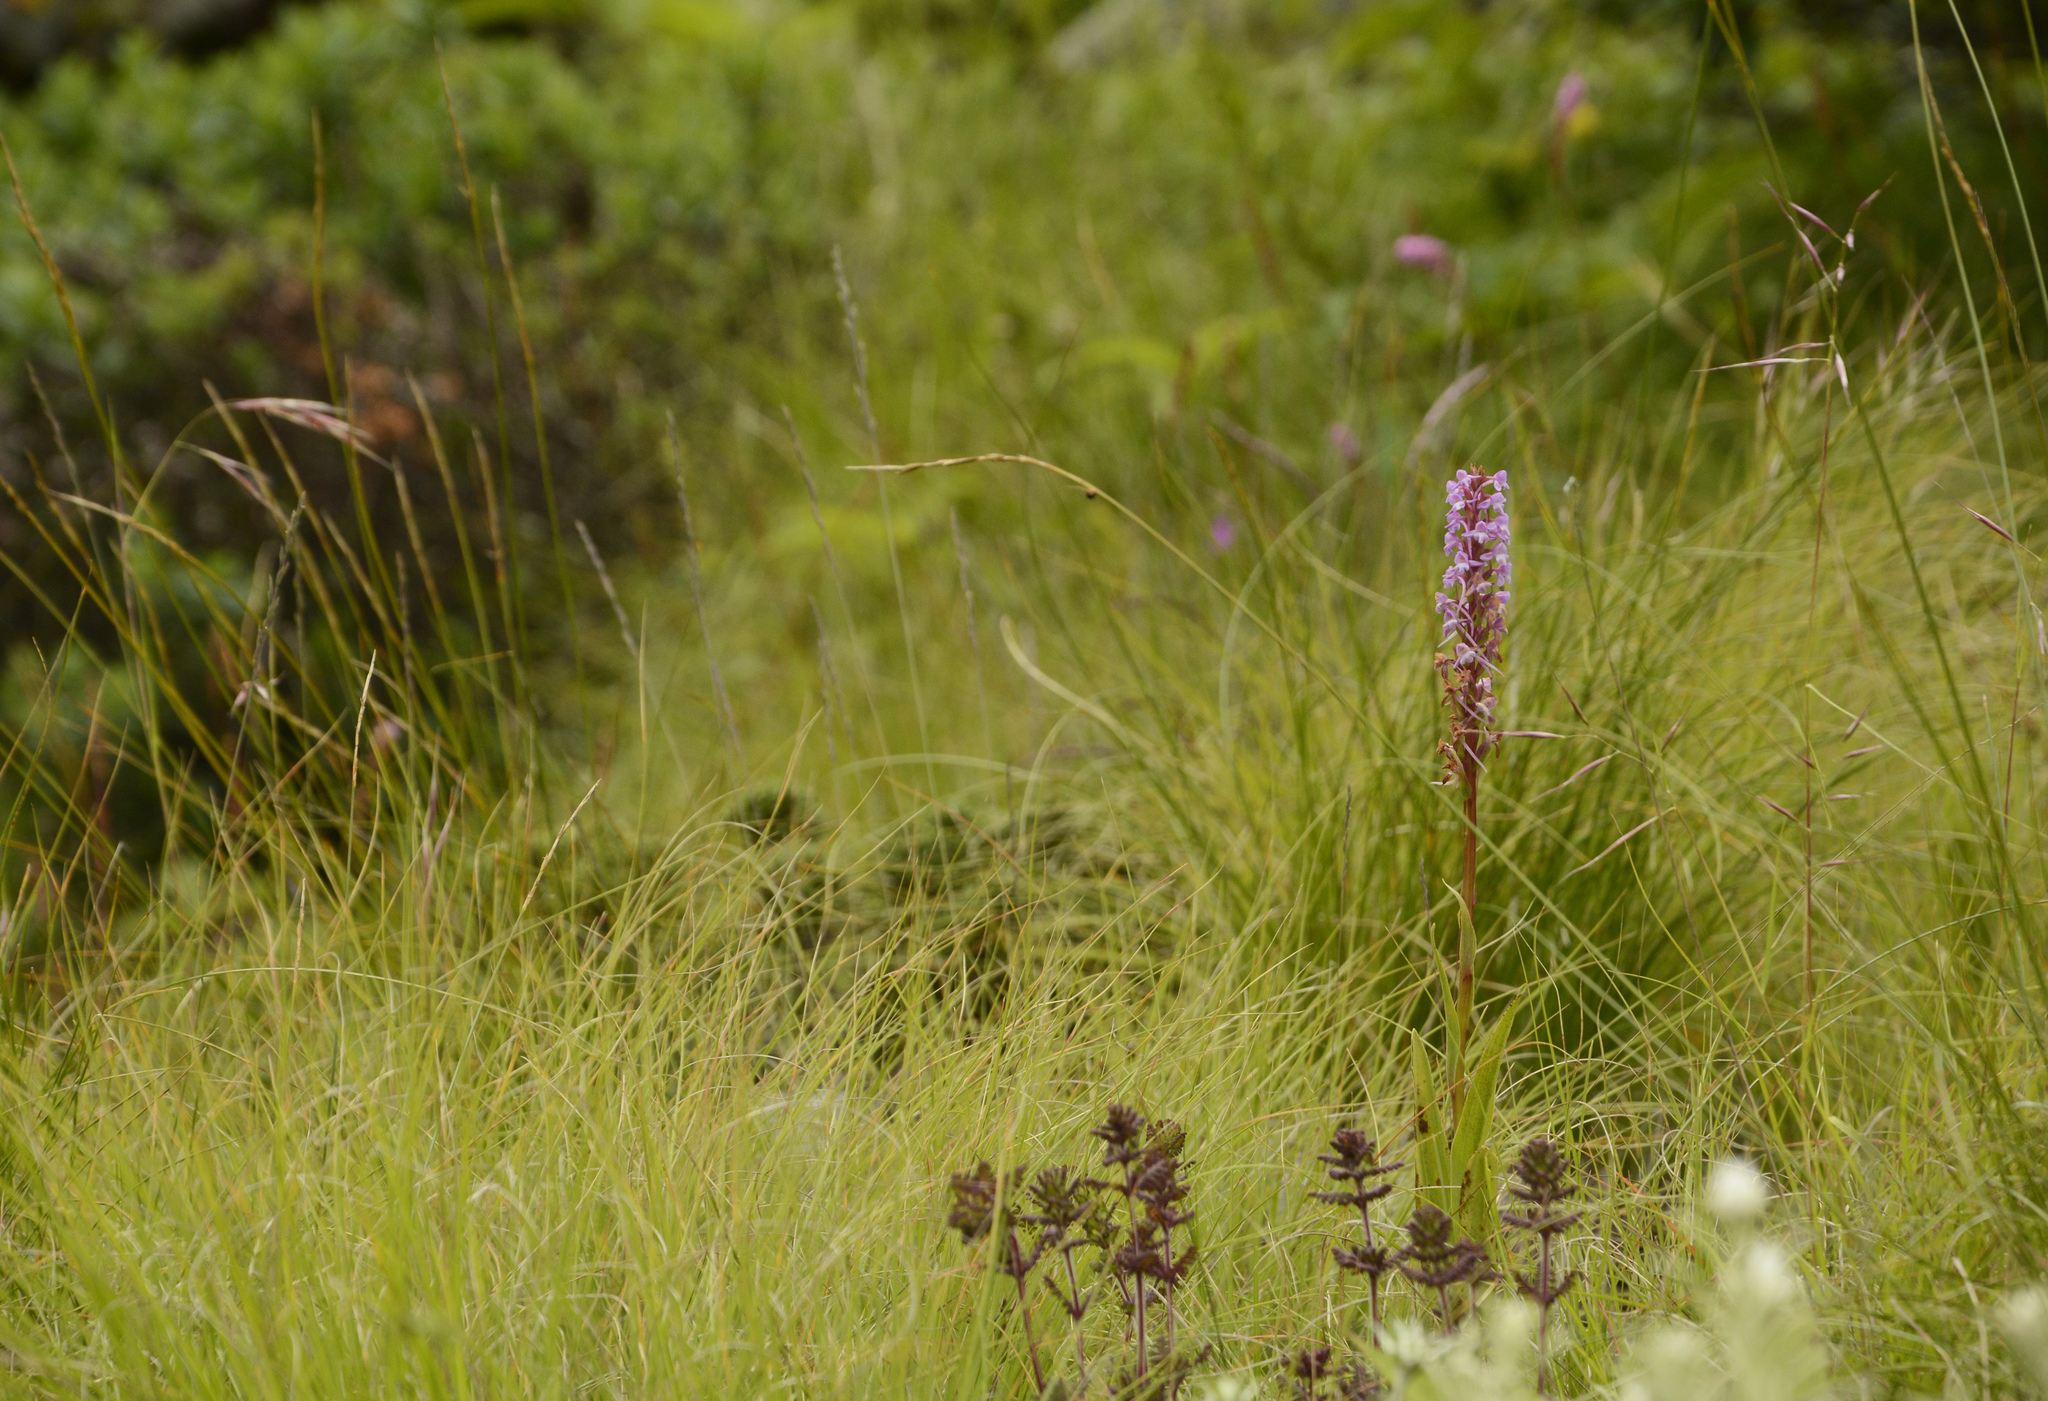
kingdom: Plantae
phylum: Tracheophyta
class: Liliopsida
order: Asparagales
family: Orchidaceae
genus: Gymnadenia
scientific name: Gymnadenia orchidis
